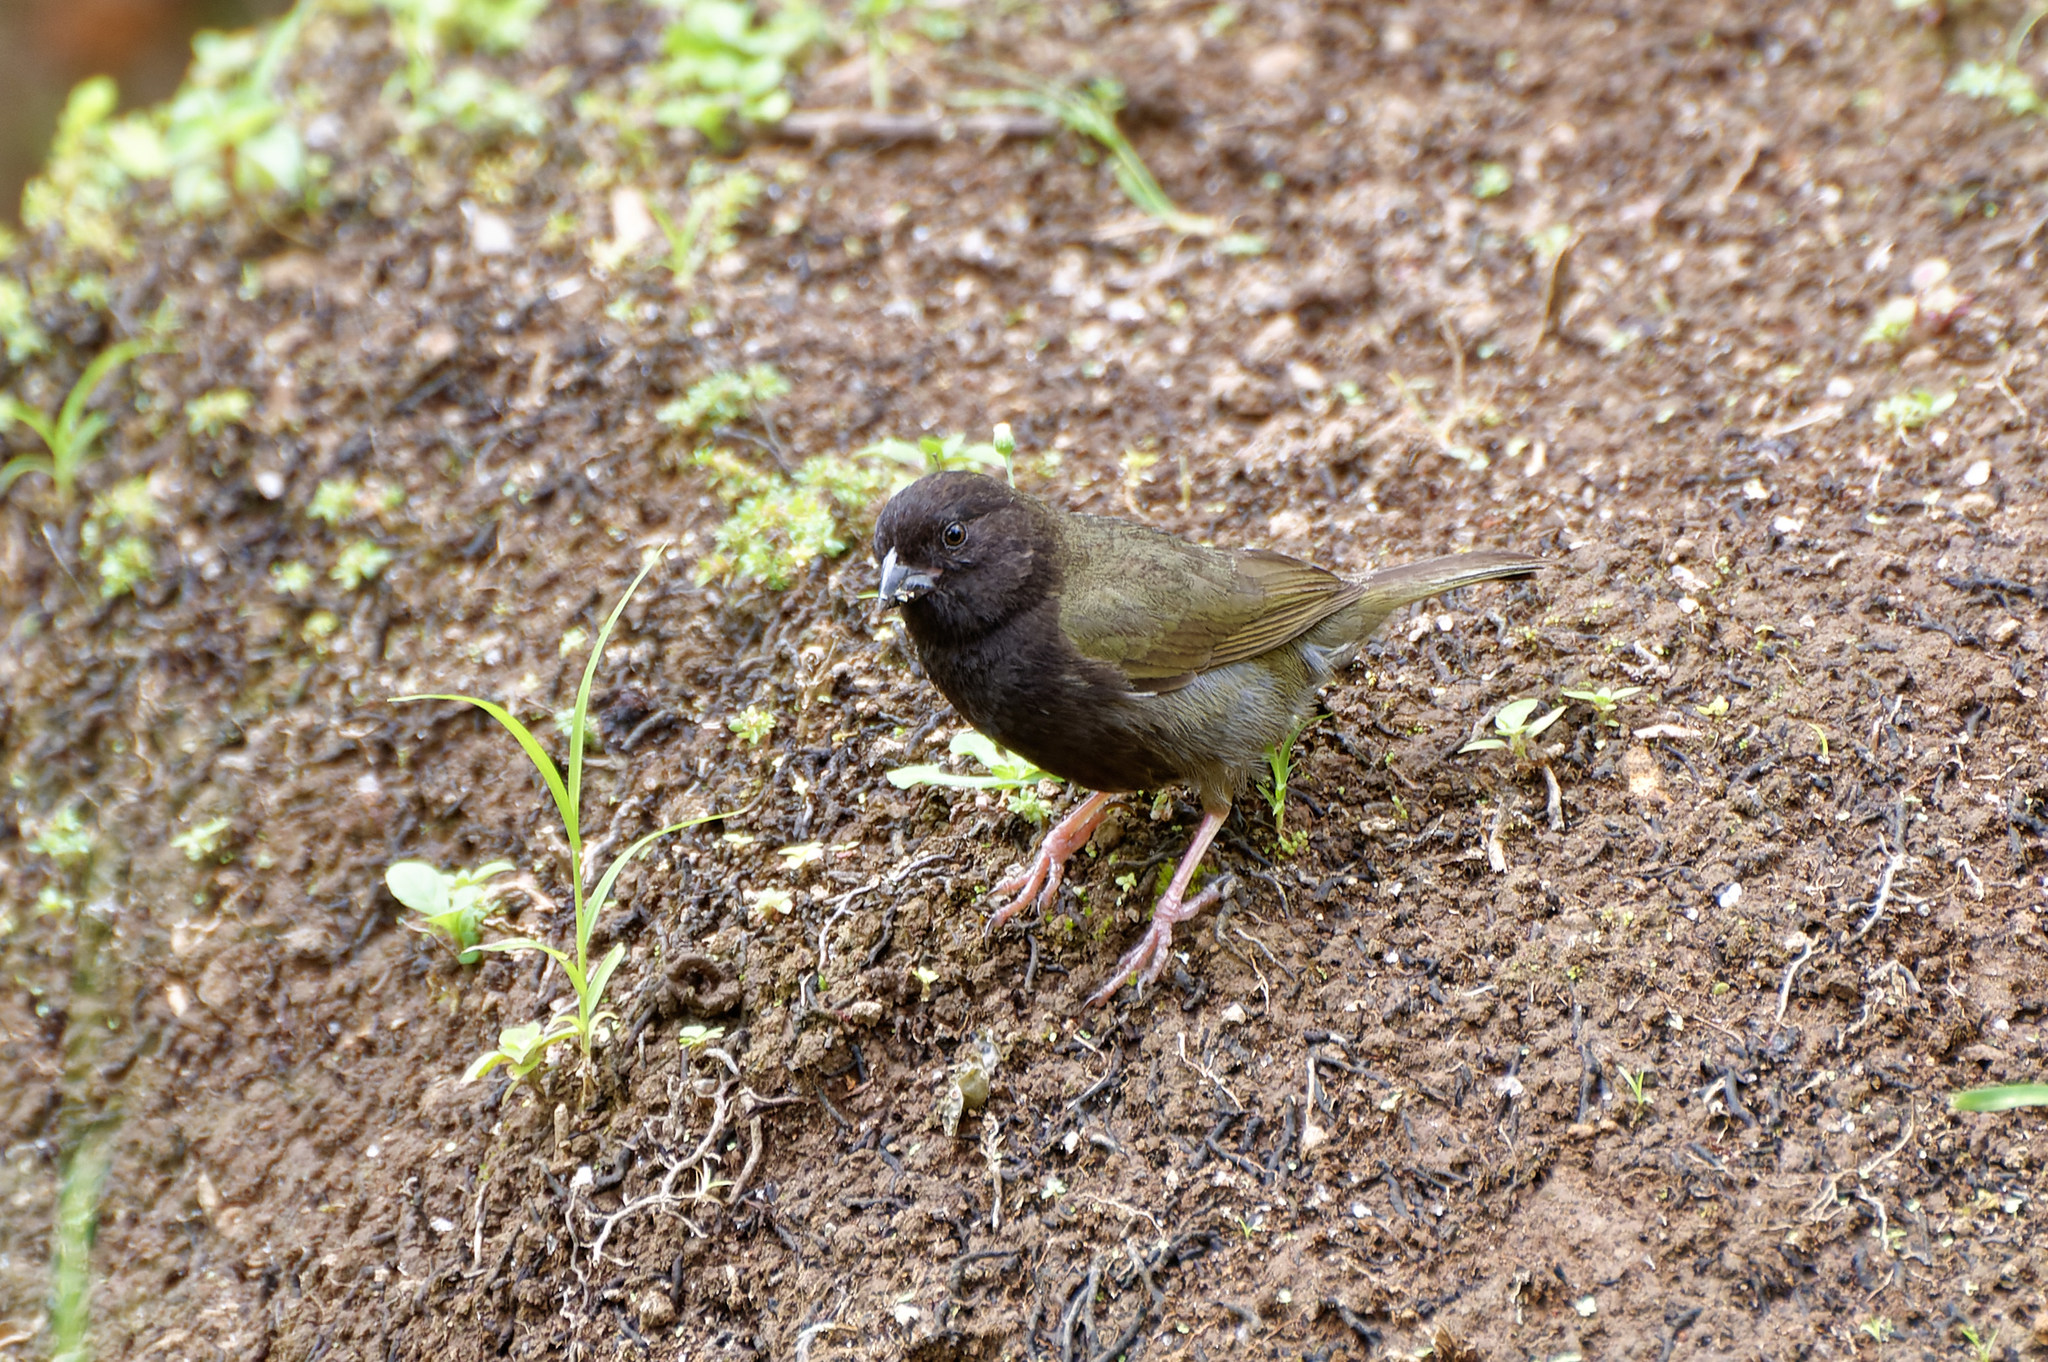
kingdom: Animalia
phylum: Chordata
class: Aves
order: Passeriformes
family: Thraupidae
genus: Melanospiza
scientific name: Melanospiza bicolor
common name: Black-faced grassquit
